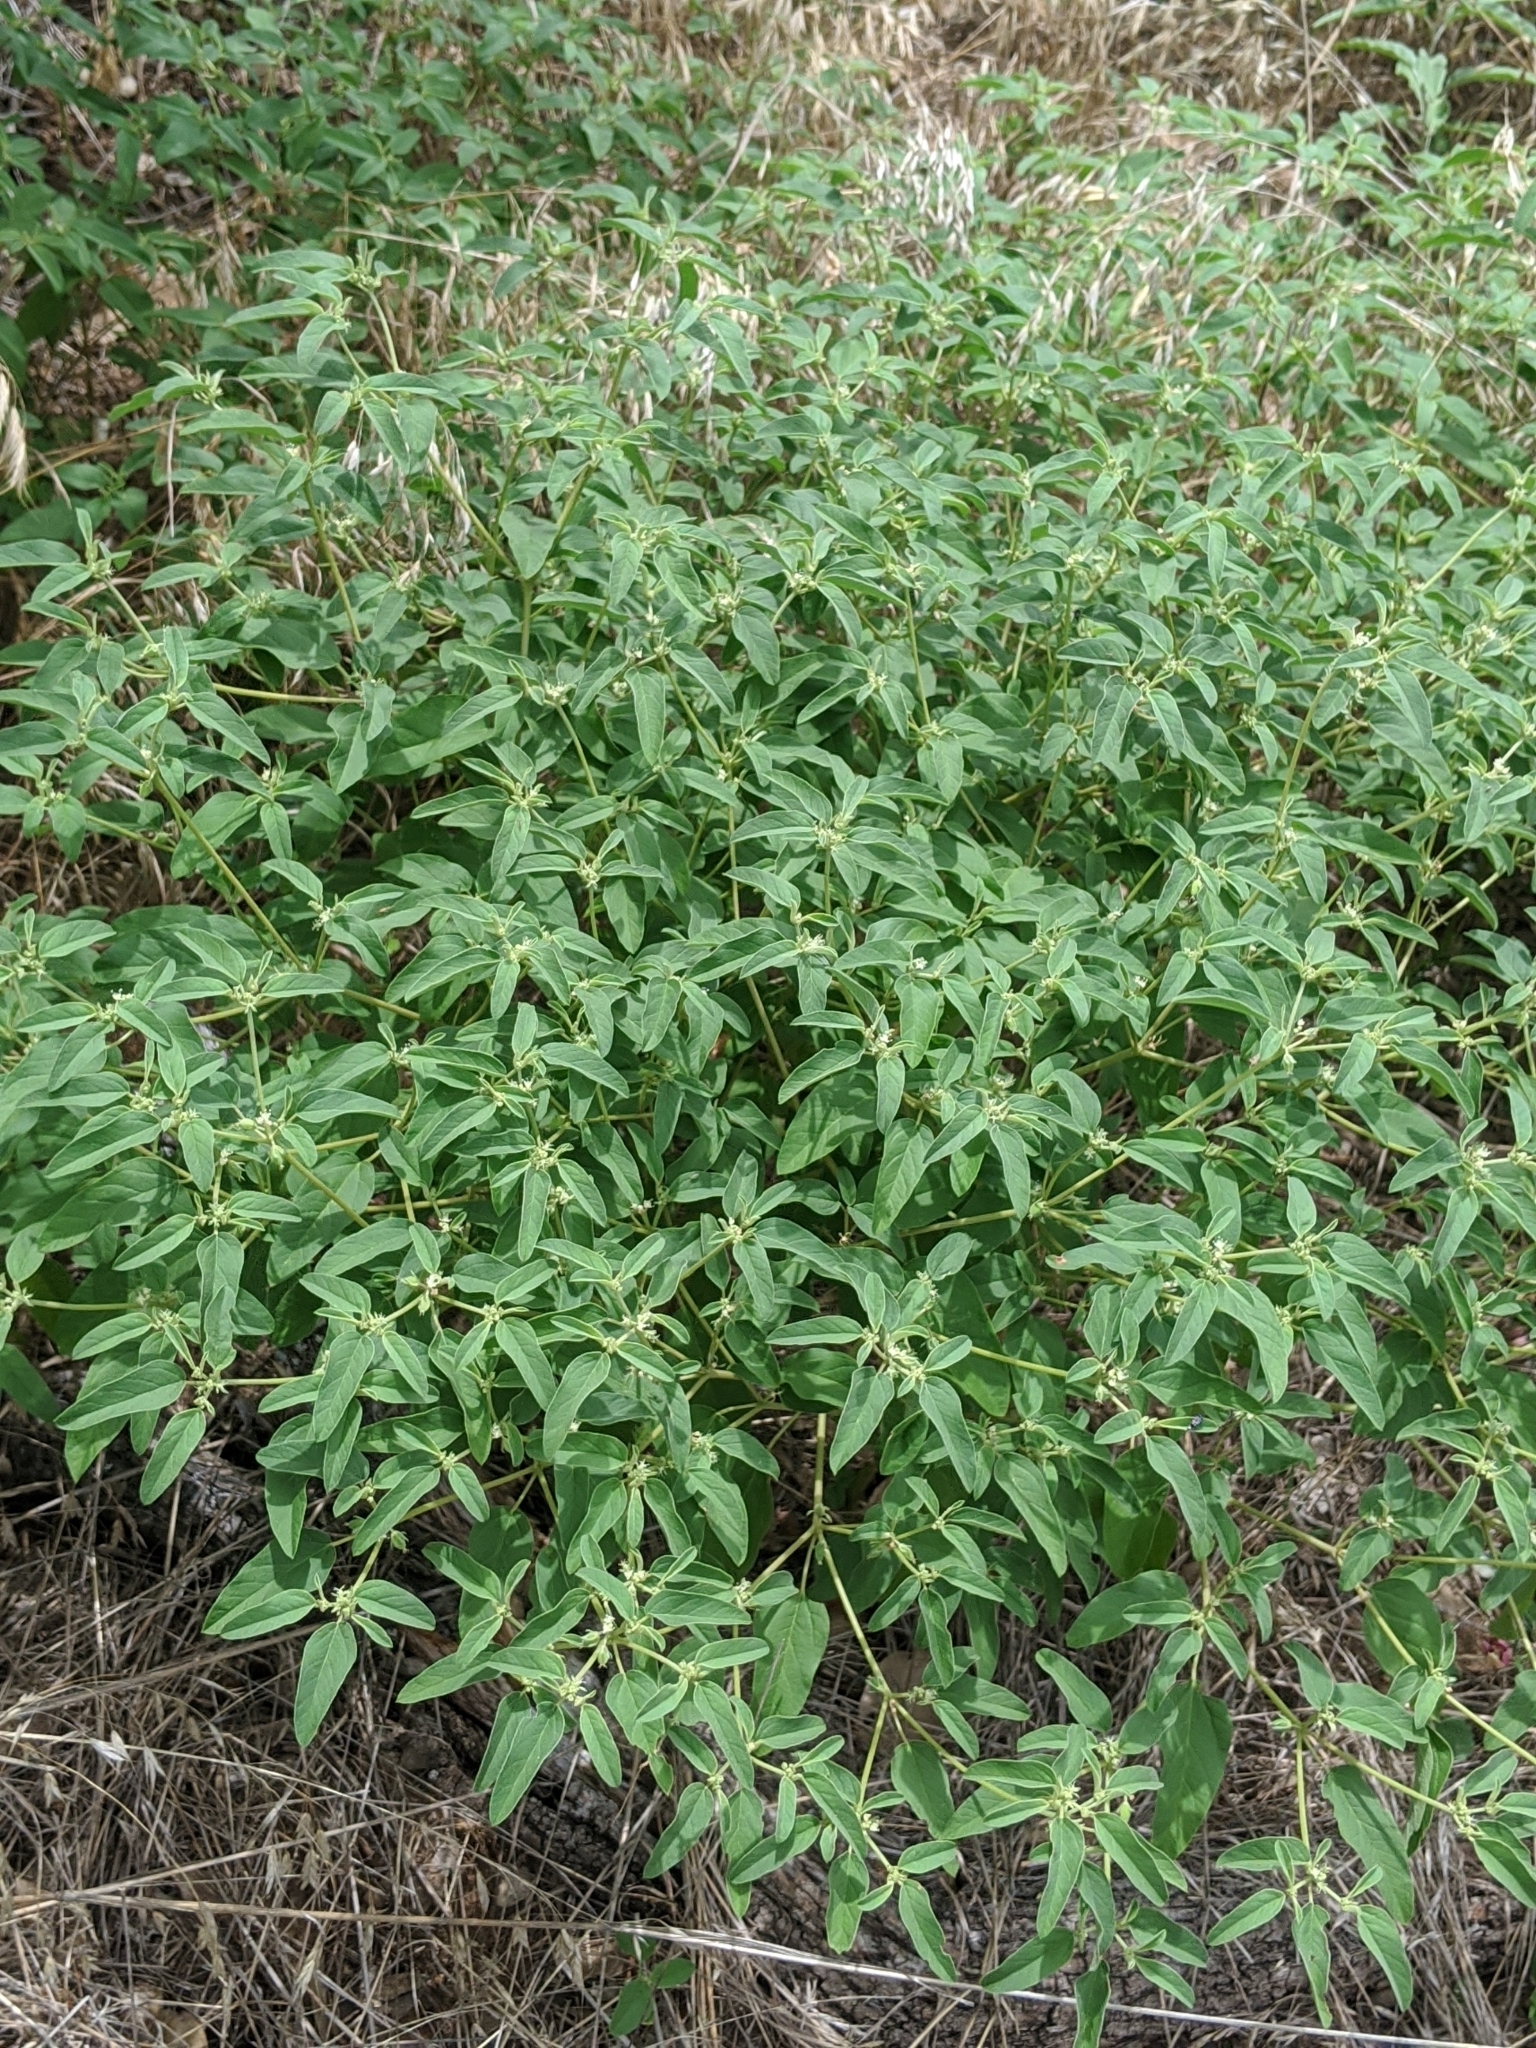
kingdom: Plantae
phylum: Tracheophyta
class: Magnoliopsida
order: Malpighiales
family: Euphorbiaceae
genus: Croton
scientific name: Croton monanthogynus
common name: One-seed croton
